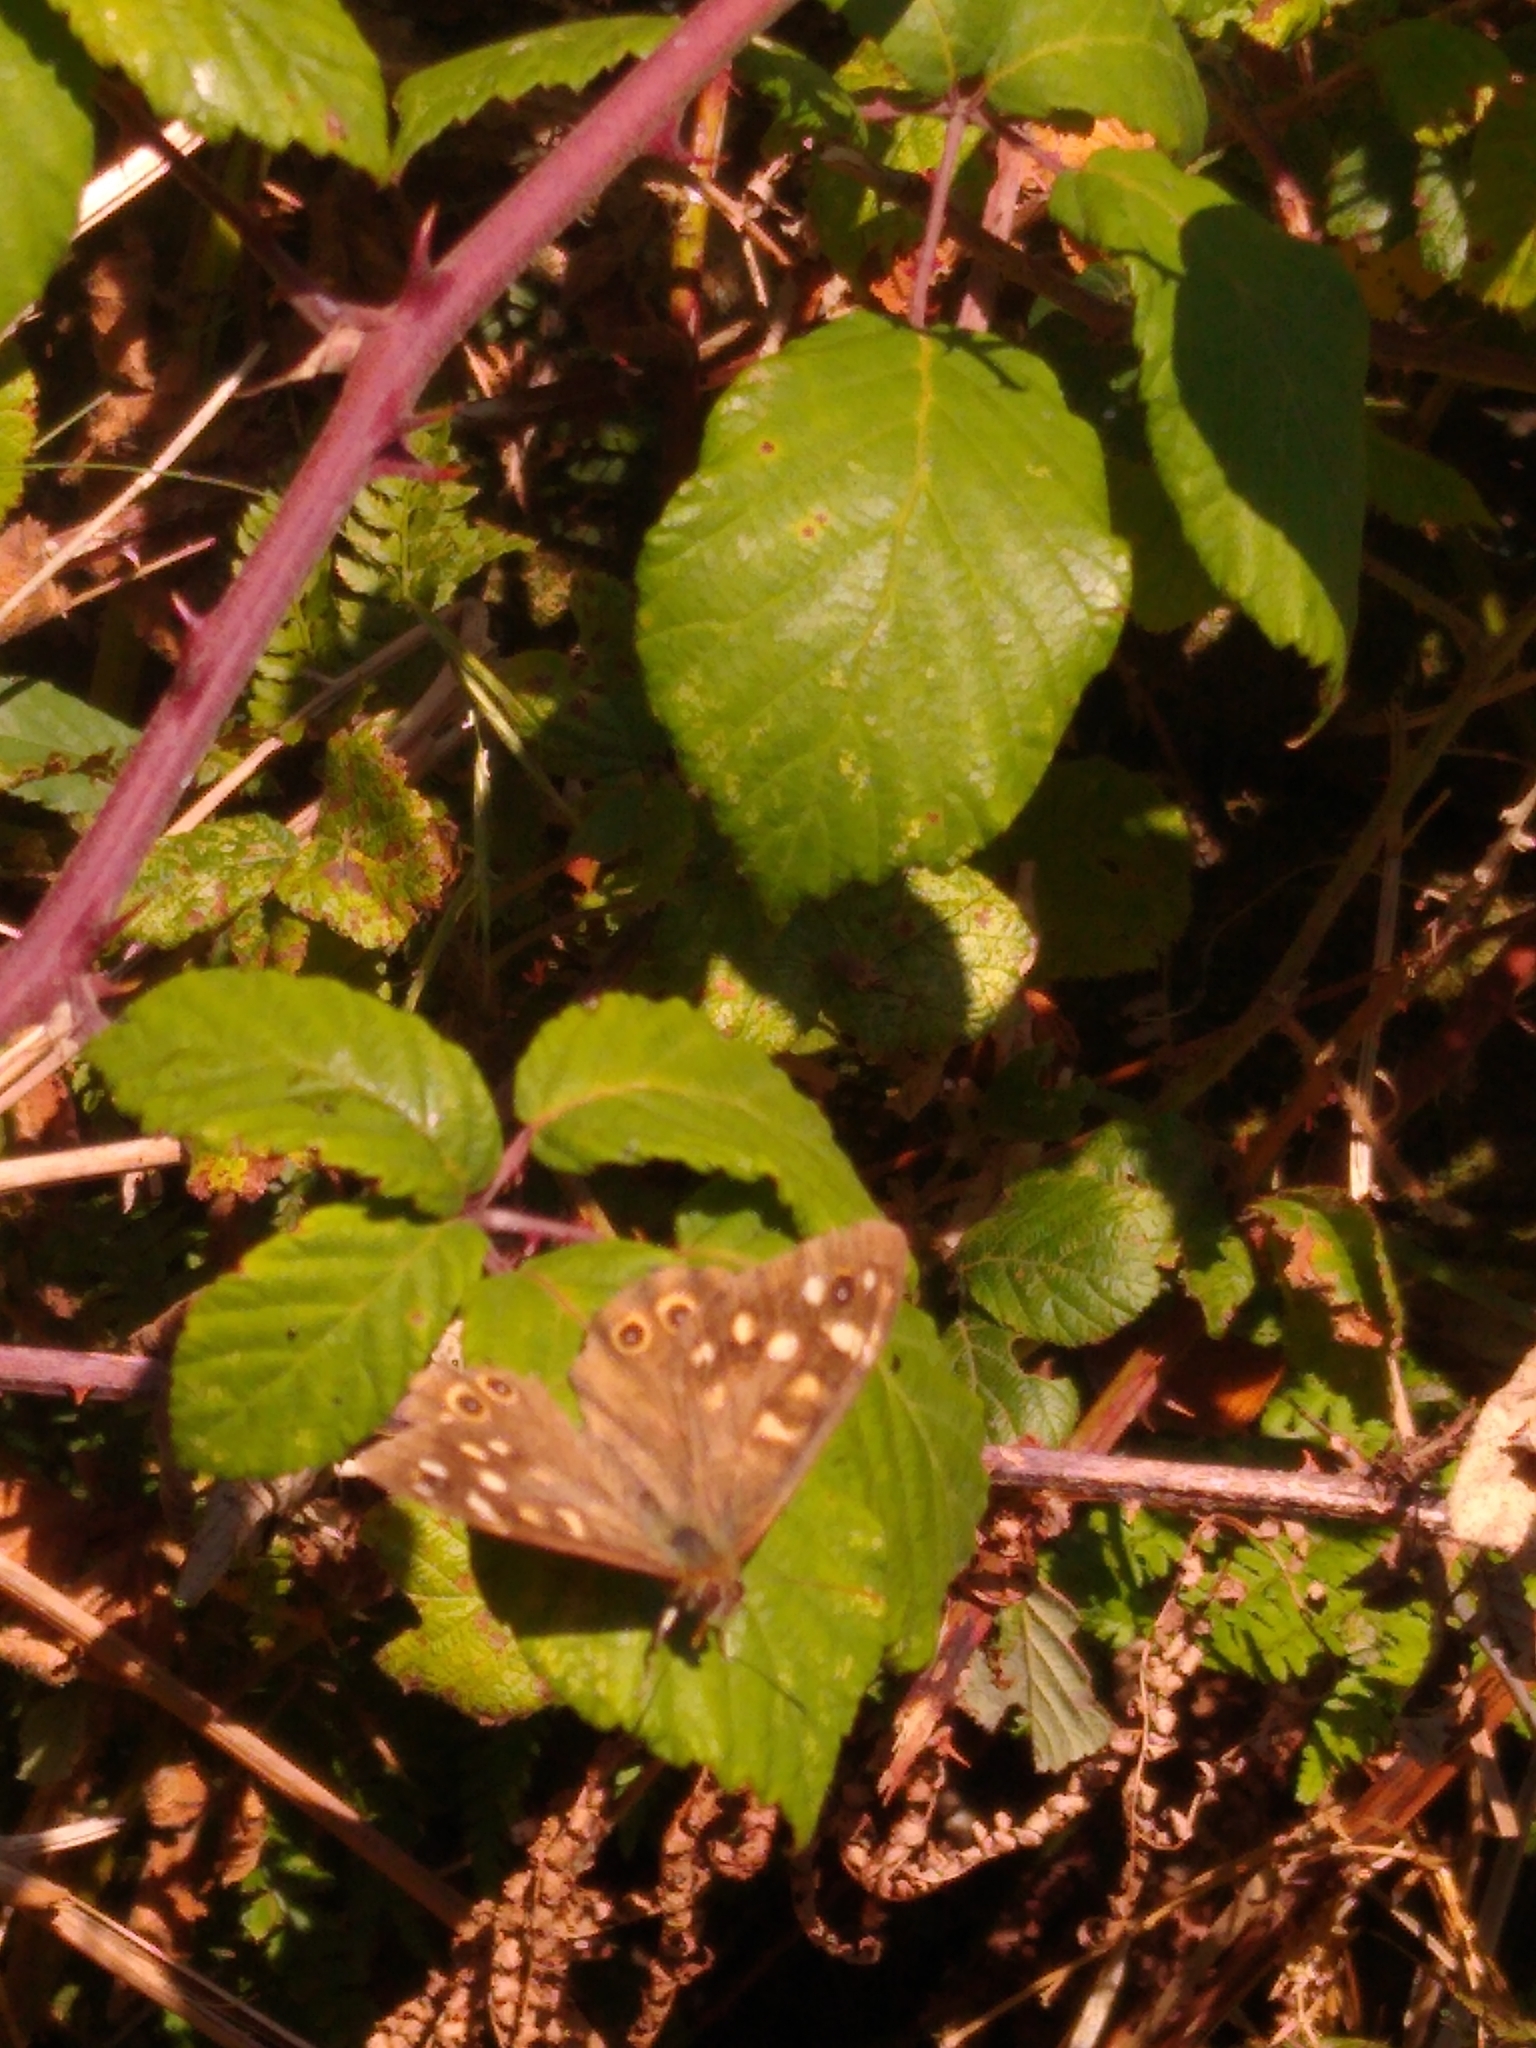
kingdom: Animalia
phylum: Arthropoda
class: Insecta
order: Lepidoptera
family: Nymphalidae
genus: Pararge
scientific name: Pararge aegeria
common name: Speckled wood
